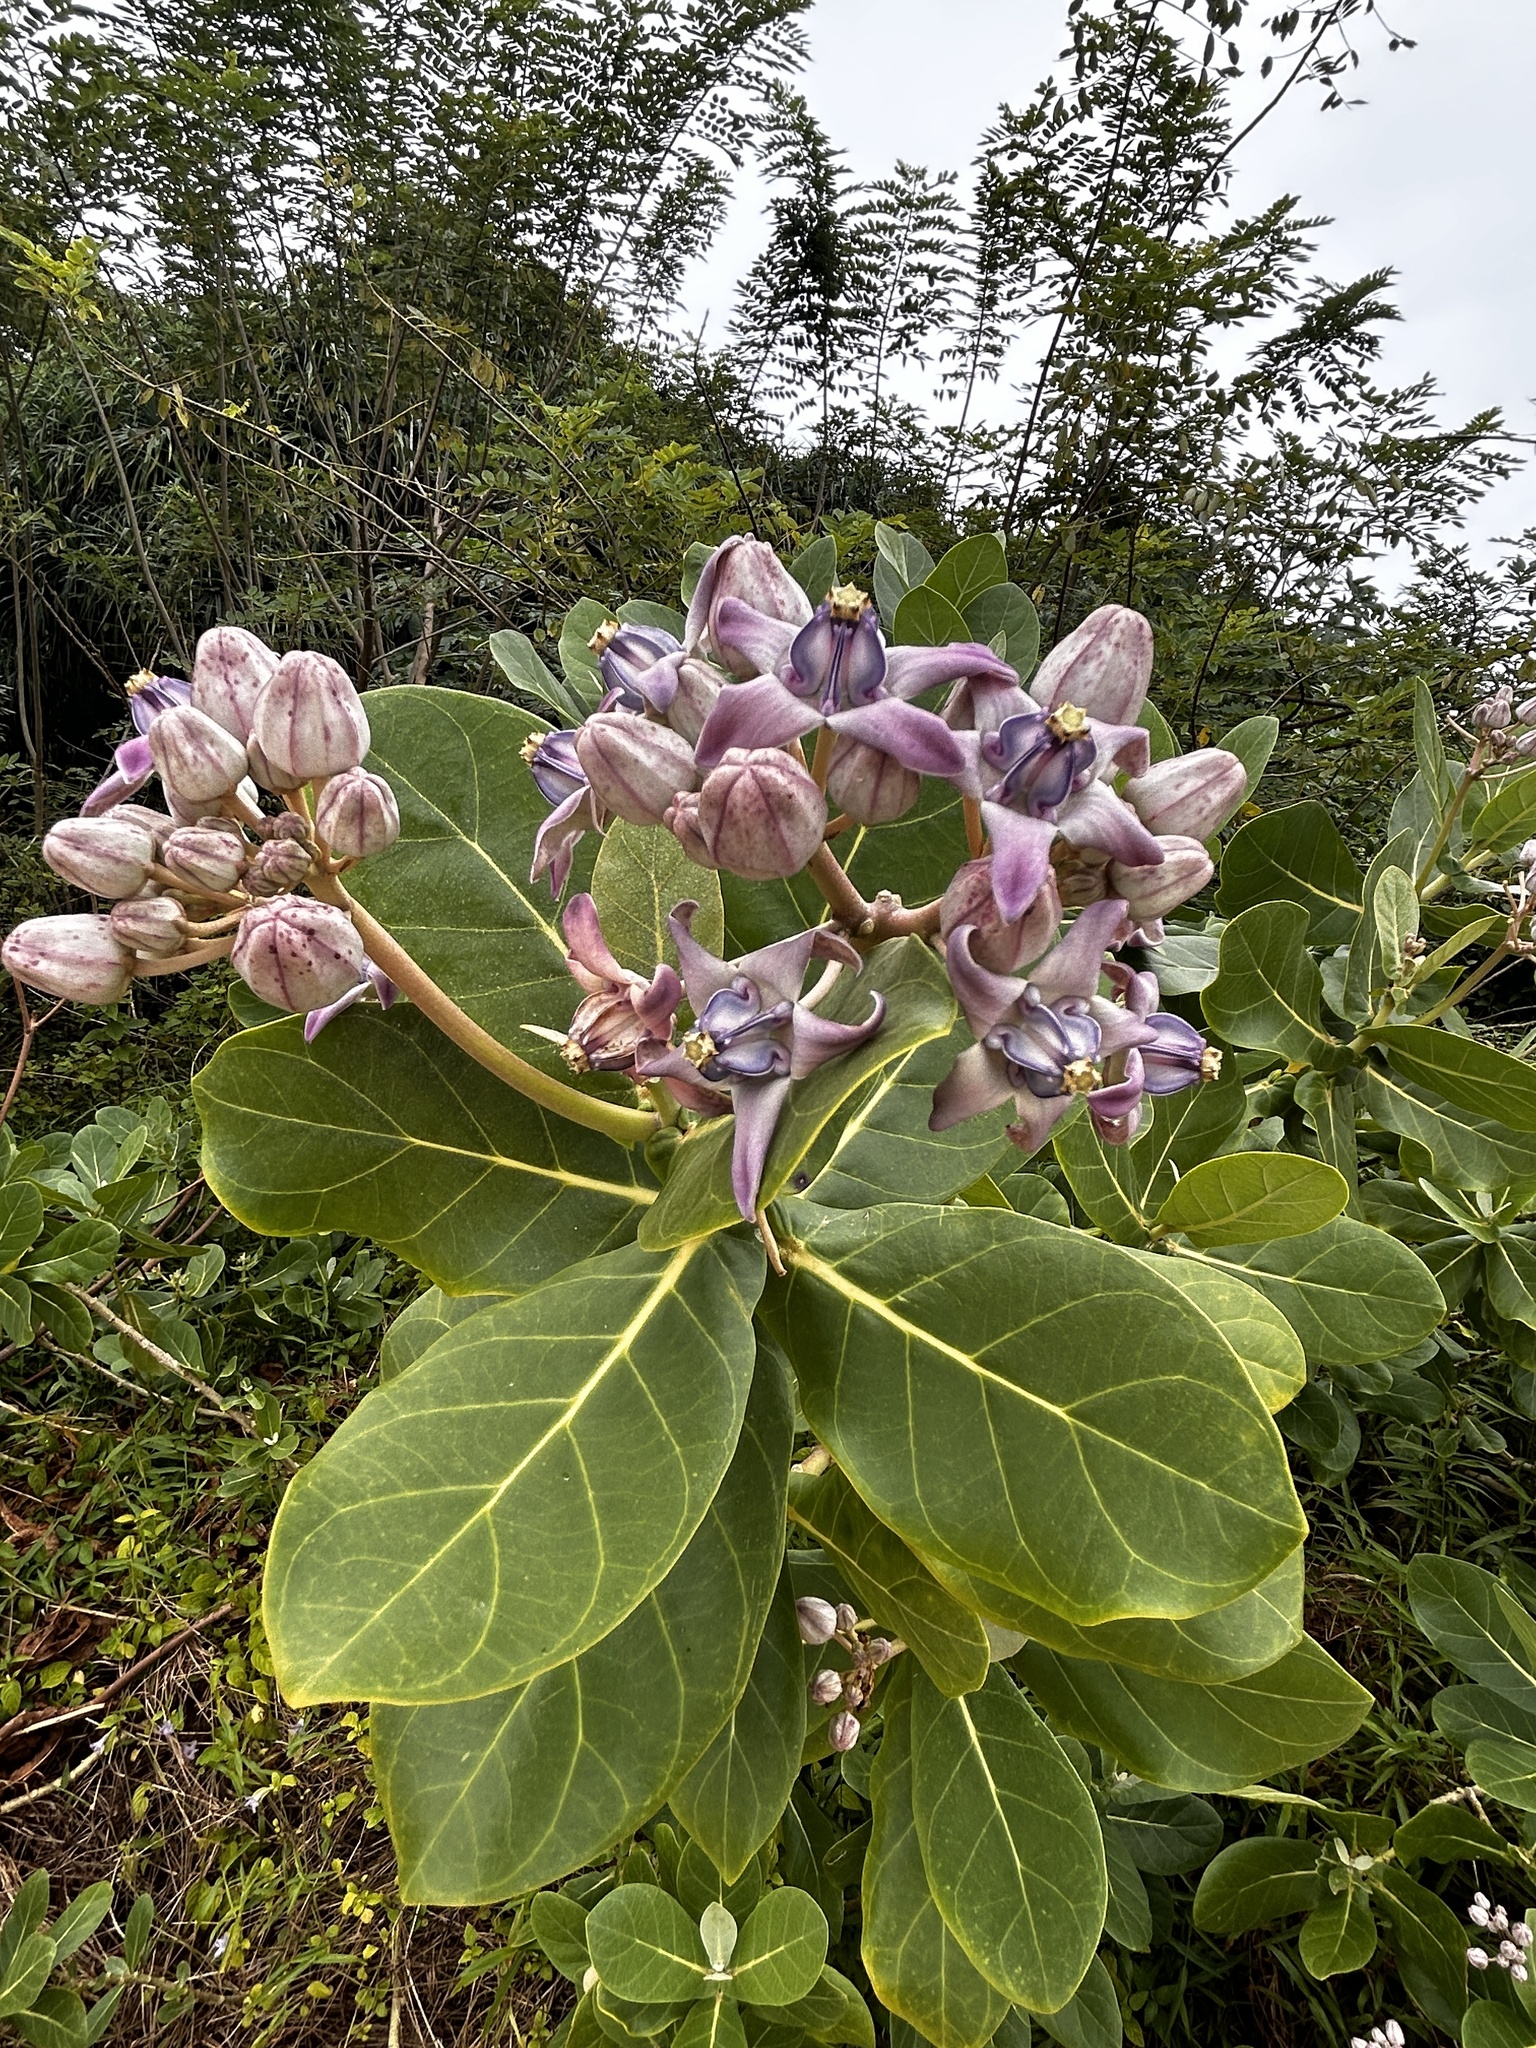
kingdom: Plantae
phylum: Tracheophyta
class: Magnoliopsida
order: Gentianales
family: Apocynaceae
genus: Calotropis
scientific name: Calotropis gigantea
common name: Crown flower
